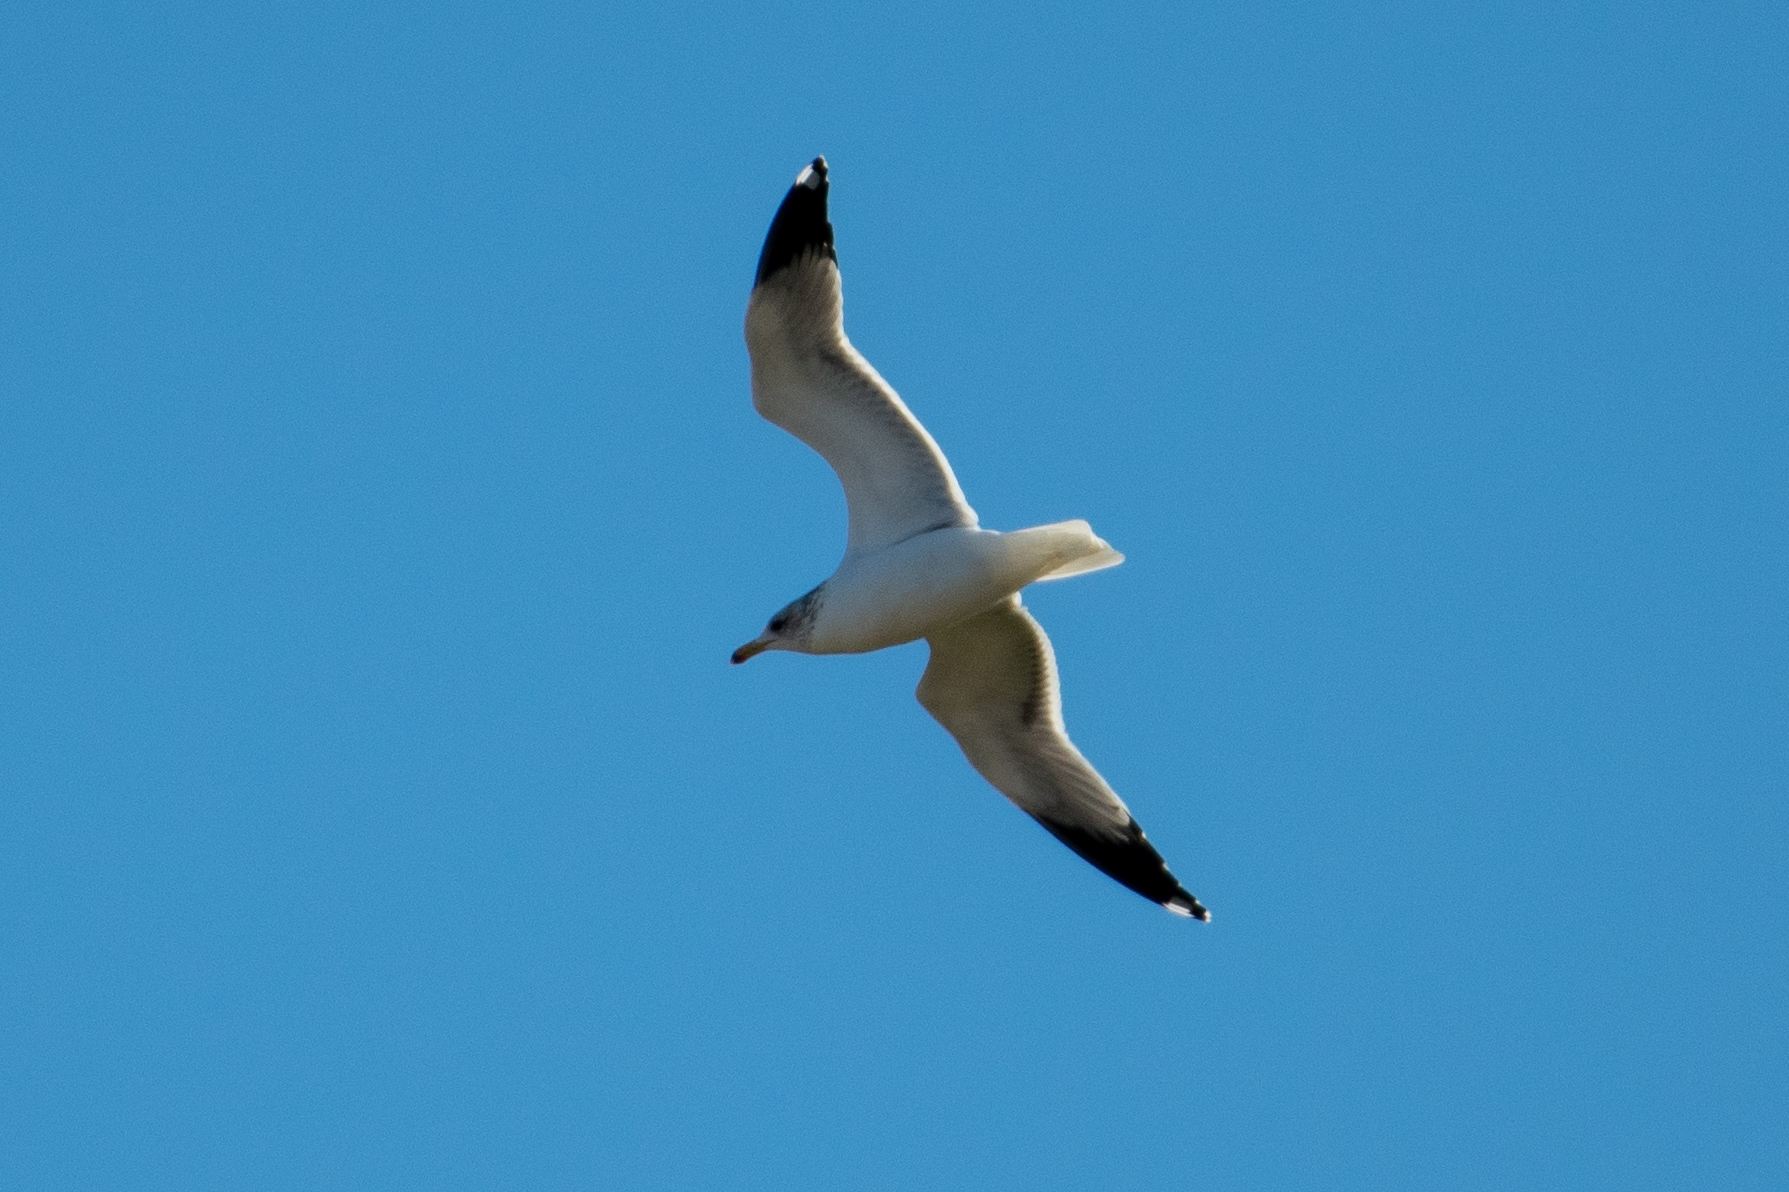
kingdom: Animalia
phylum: Chordata
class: Aves
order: Charadriiformes
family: Laridae
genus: Larus
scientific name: Larus californicus
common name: California gull
